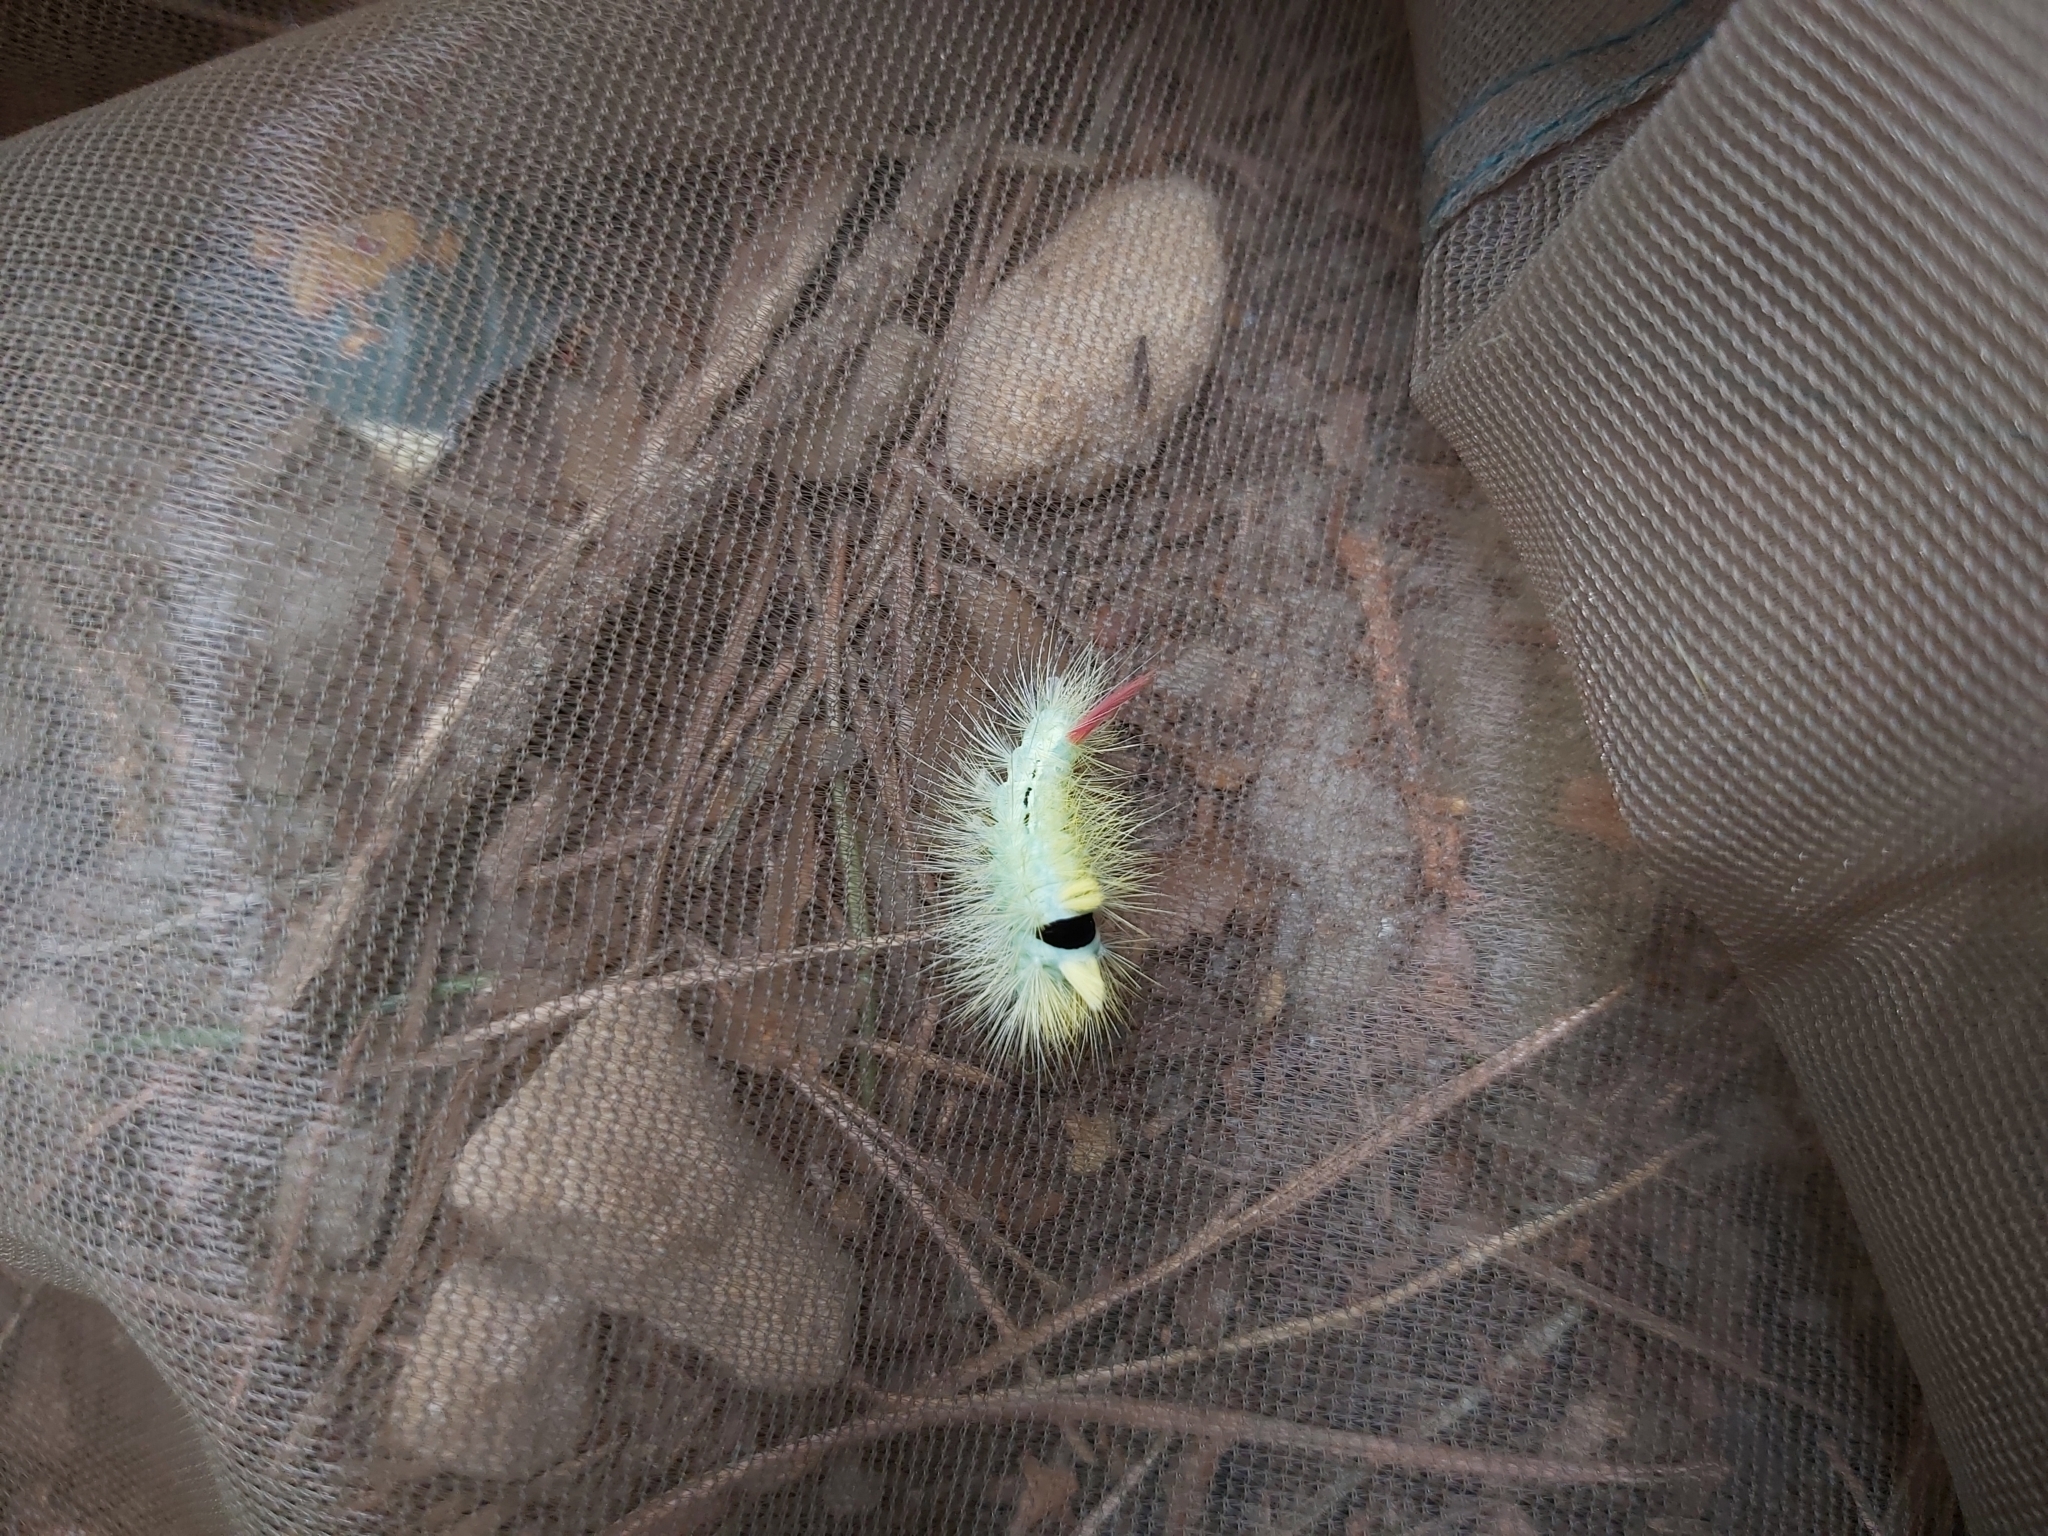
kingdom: Animalia
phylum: Arthropoda
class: Insecta
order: Lepidoptera
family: Erebidae
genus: Calliteara
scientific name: Calliteara pudibunda
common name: Pale tussock
